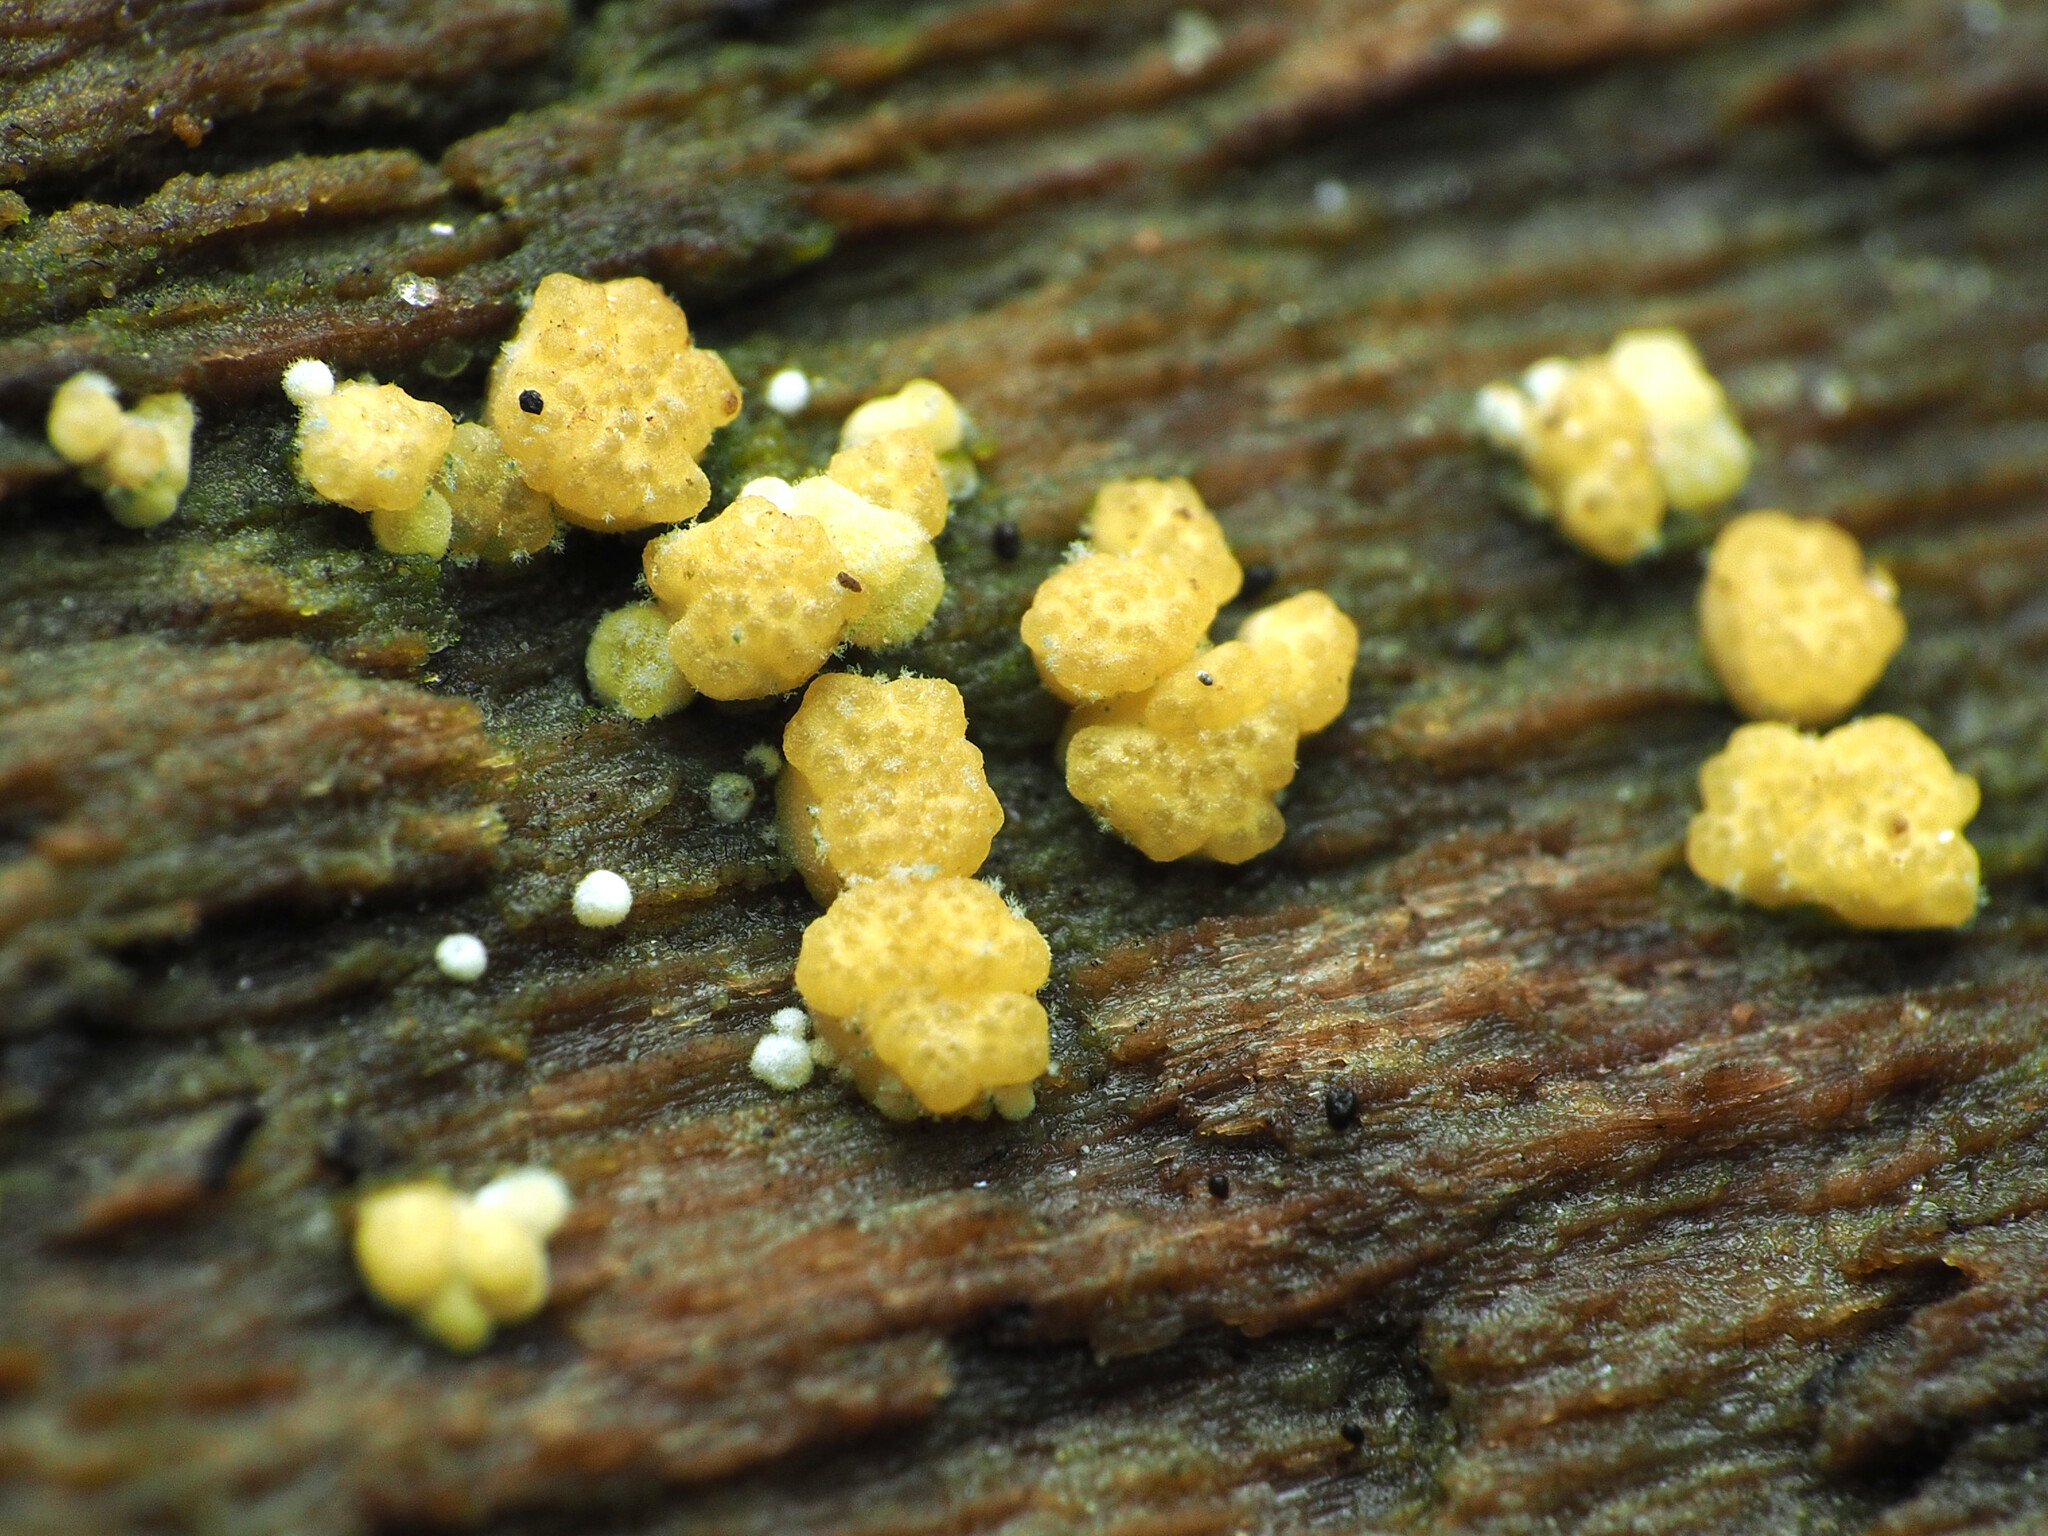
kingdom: Fungi
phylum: Ascomycota
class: Sordariomycetes
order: Hypocreales
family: Hypocreaceae
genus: Trichoderma
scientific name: Trichoderma gelatinosum
